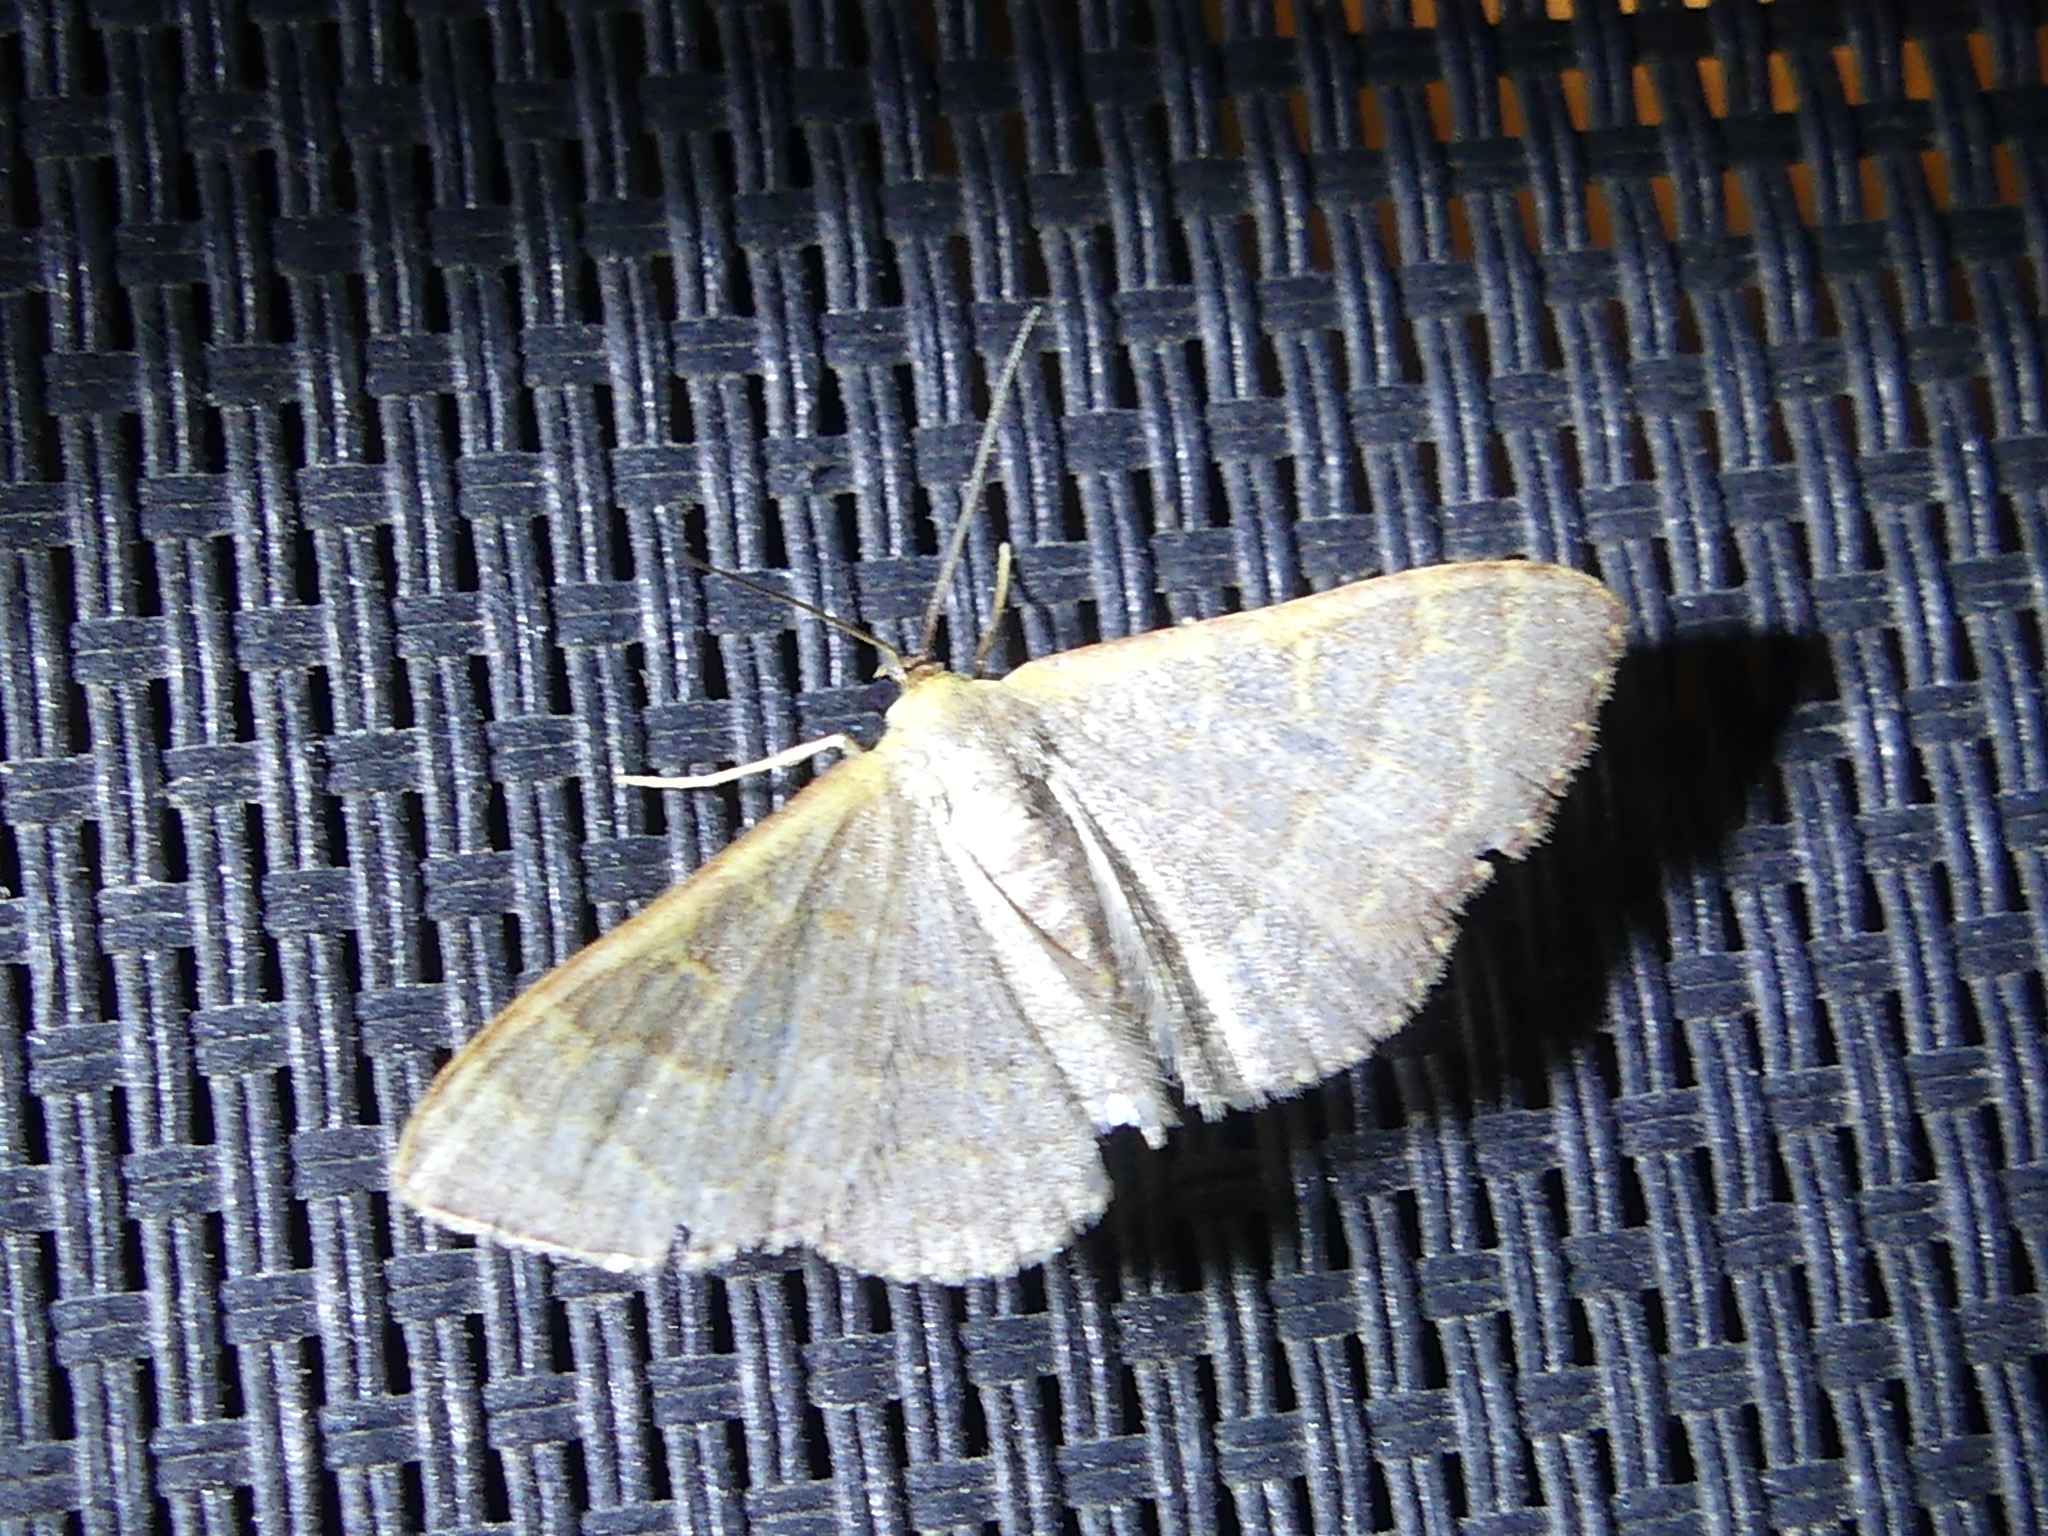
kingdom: Animalia
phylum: Arthropoda
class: Insecta
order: Lepidoptera
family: Geometridae
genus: Leptostales
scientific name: Leptostales pannaria
